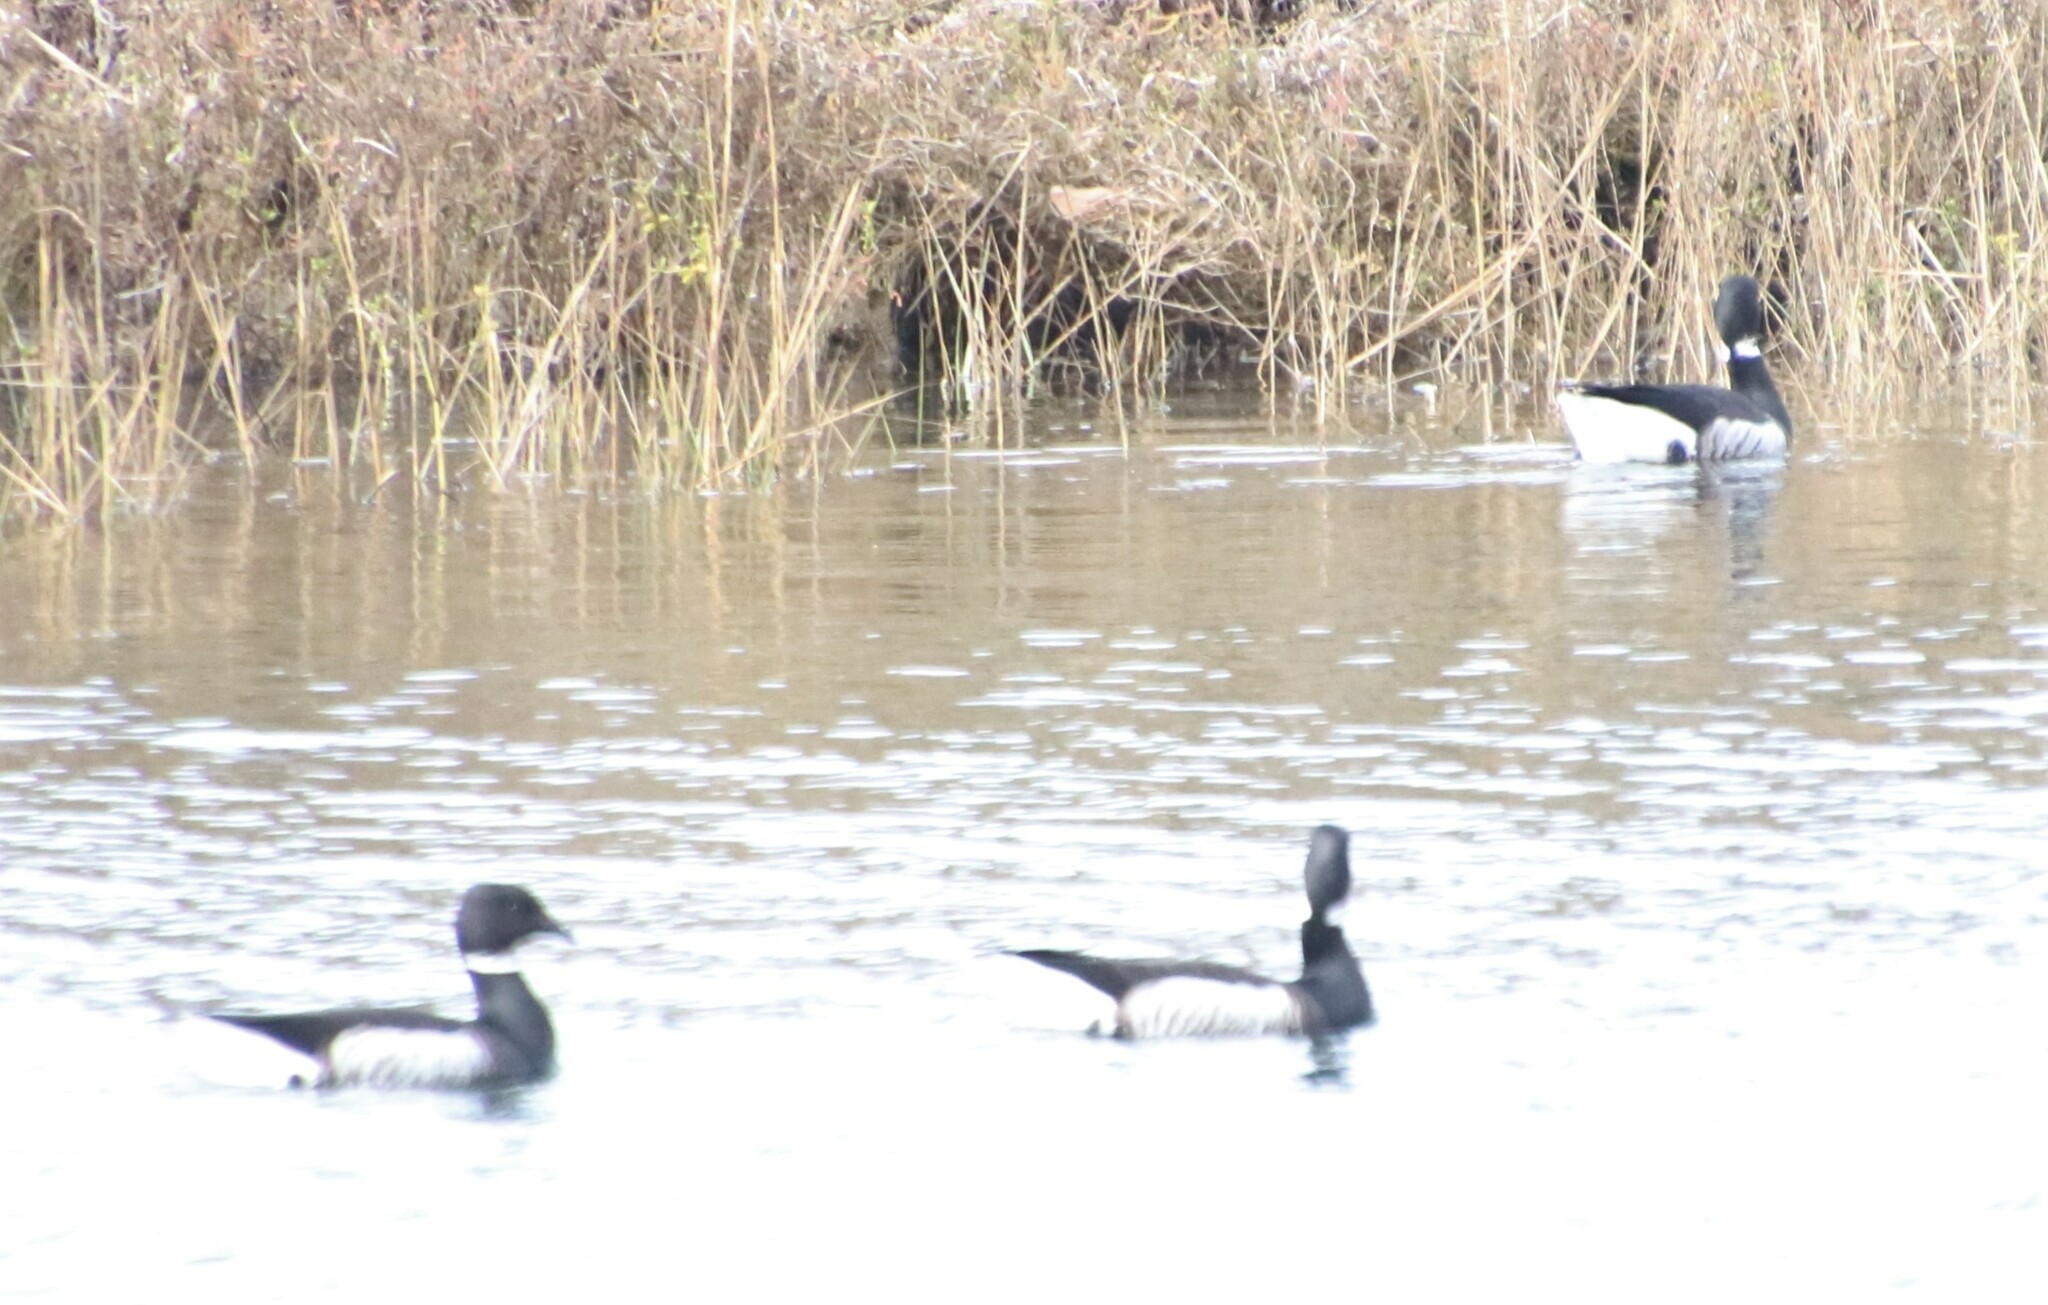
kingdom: Animalia
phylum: Chordata
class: Aves
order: Anseriformes
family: Anatidae
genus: Branta
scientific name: Branta bernicla
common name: Brant goose
